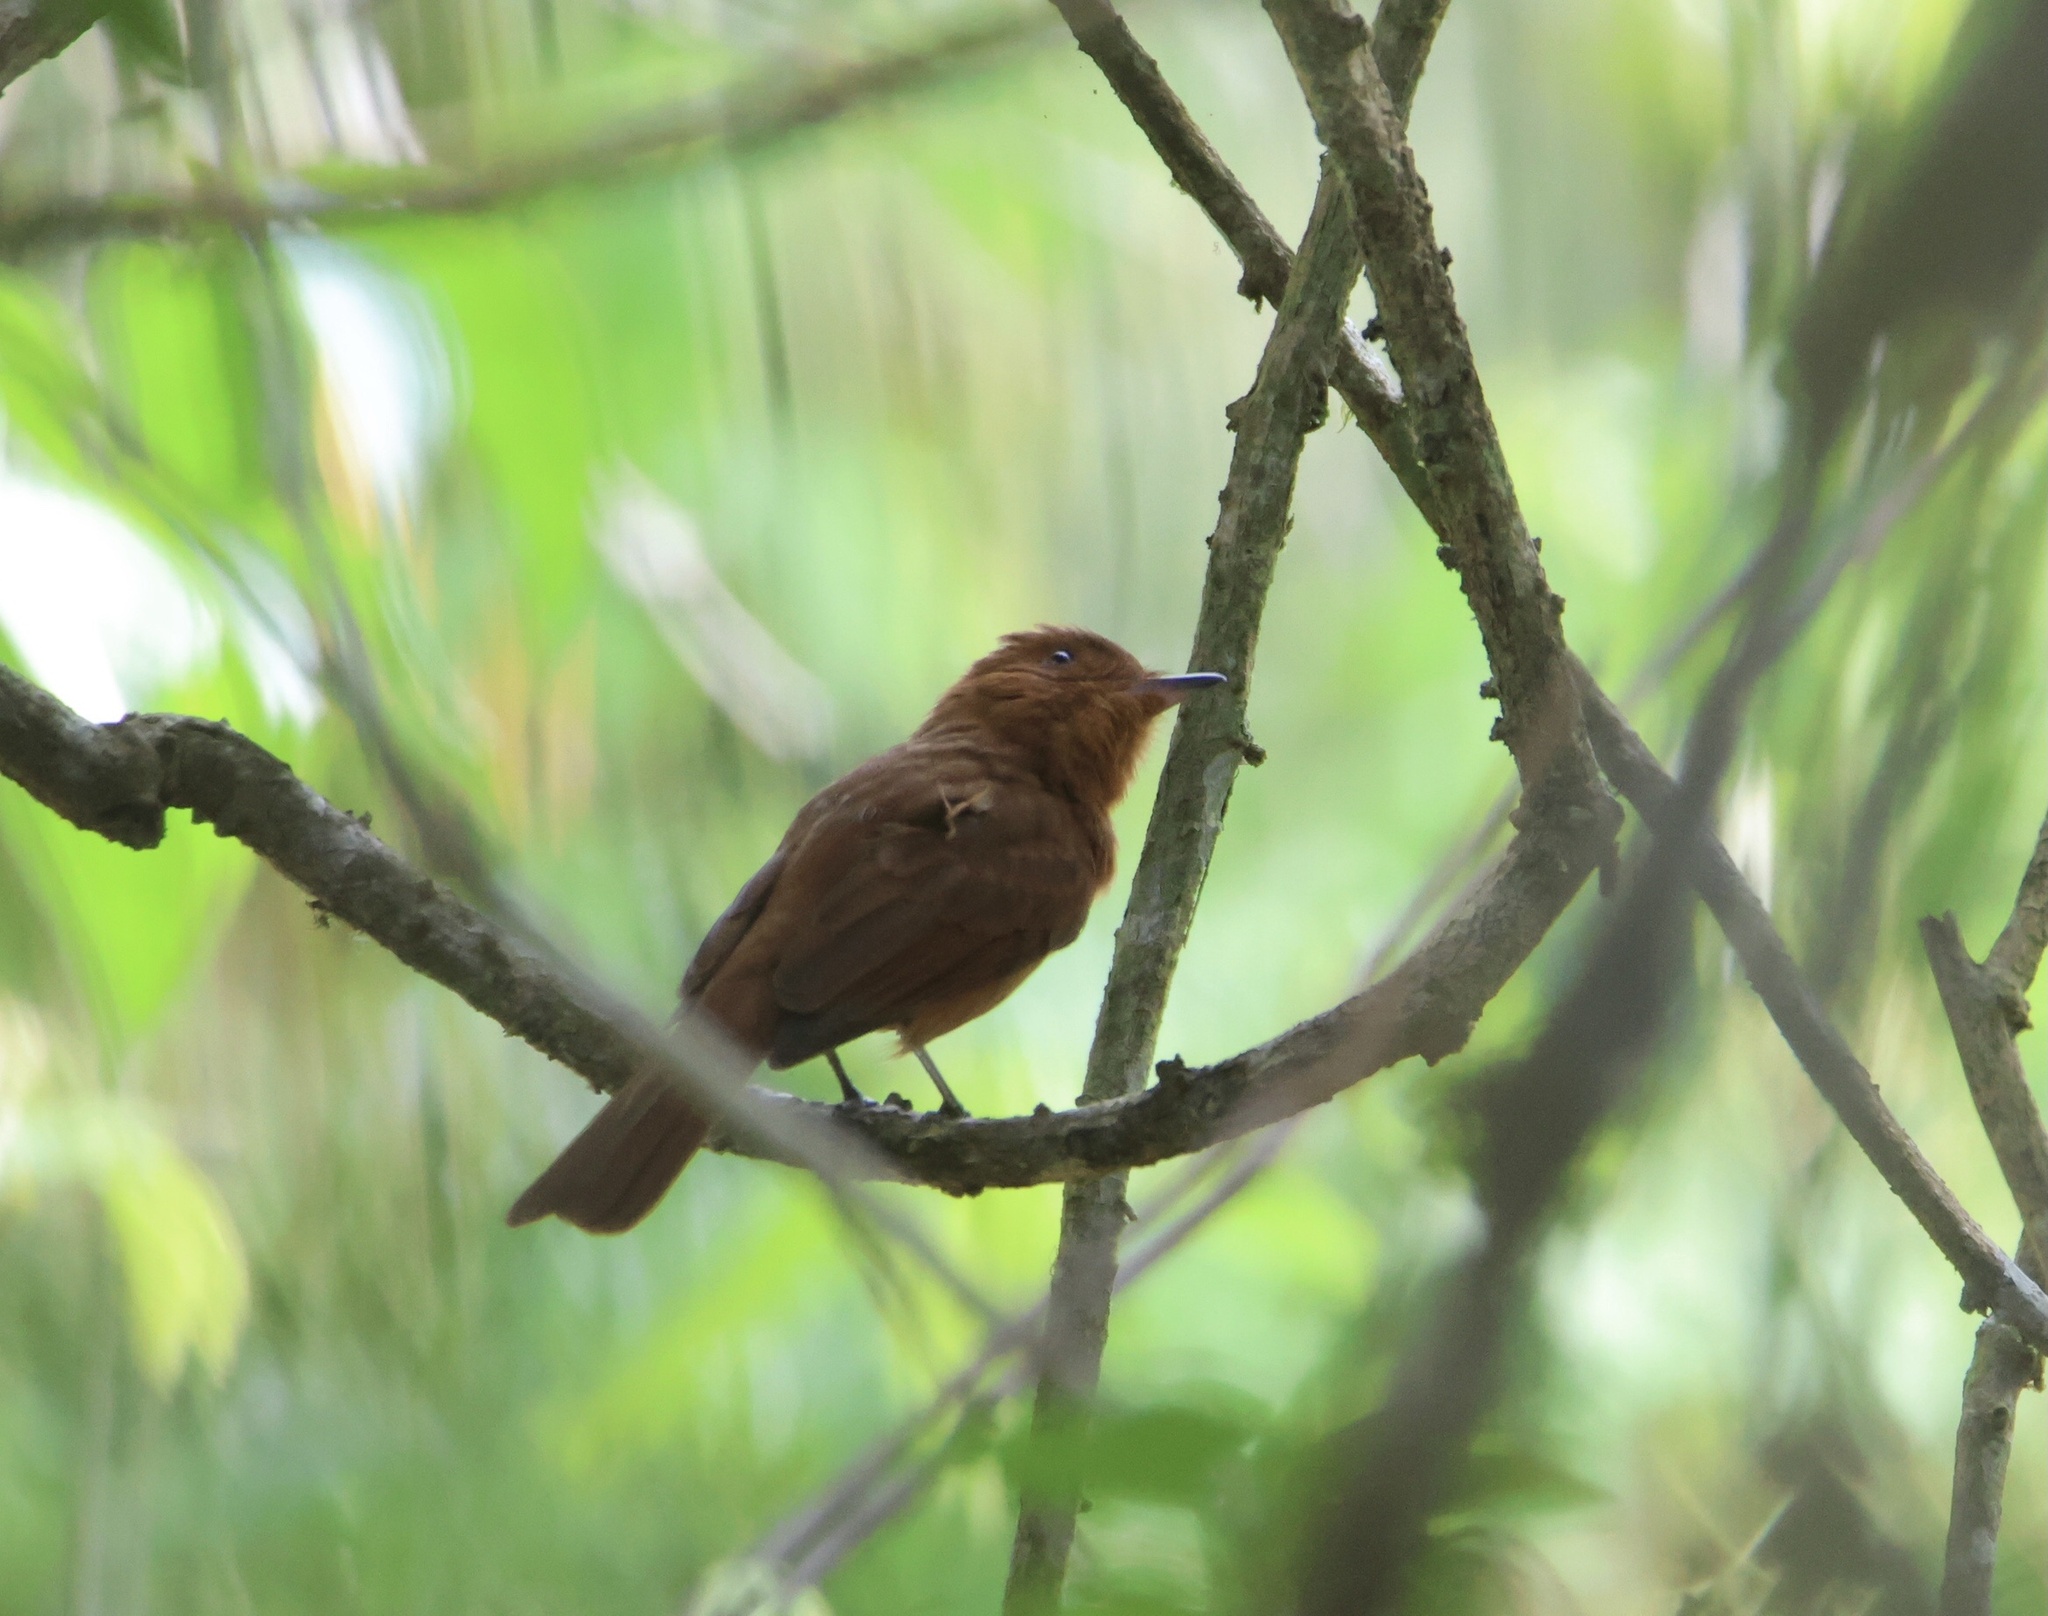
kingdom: Animalia
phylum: Chordata
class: Aves
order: Passeriformes
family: Tyrannidae
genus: Rhytipterna
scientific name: Rhytipterna holerythra
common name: Rufous mourner
